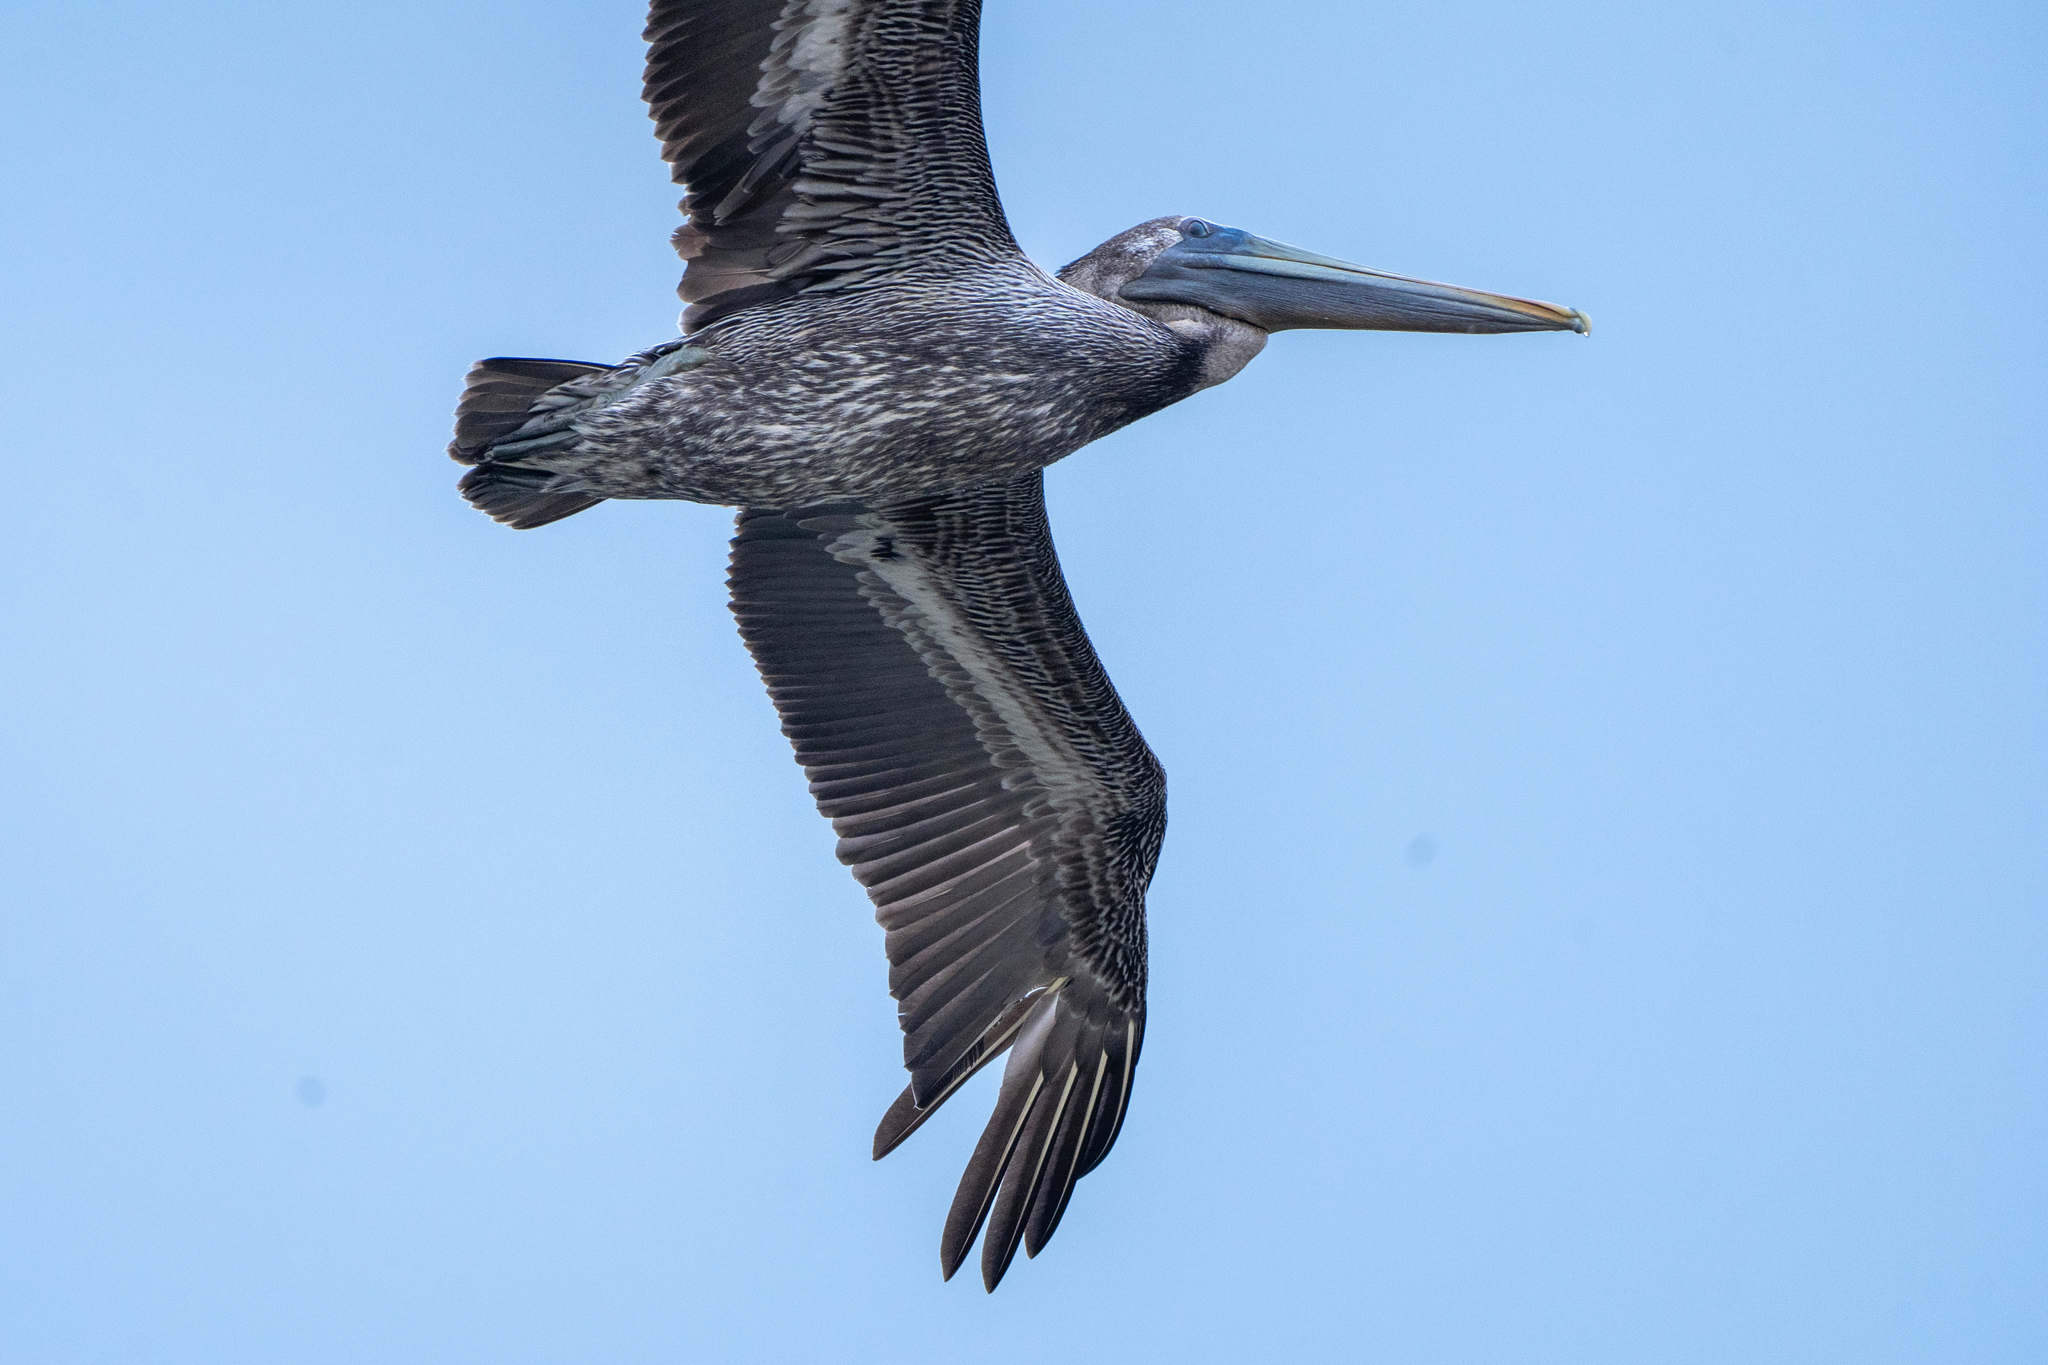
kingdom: Animalia
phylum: Chordata
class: Aves
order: Pelecaniformes
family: Pelecanidae
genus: Pelecanus
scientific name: Pelecanus occidentalis
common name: Brown pelican
